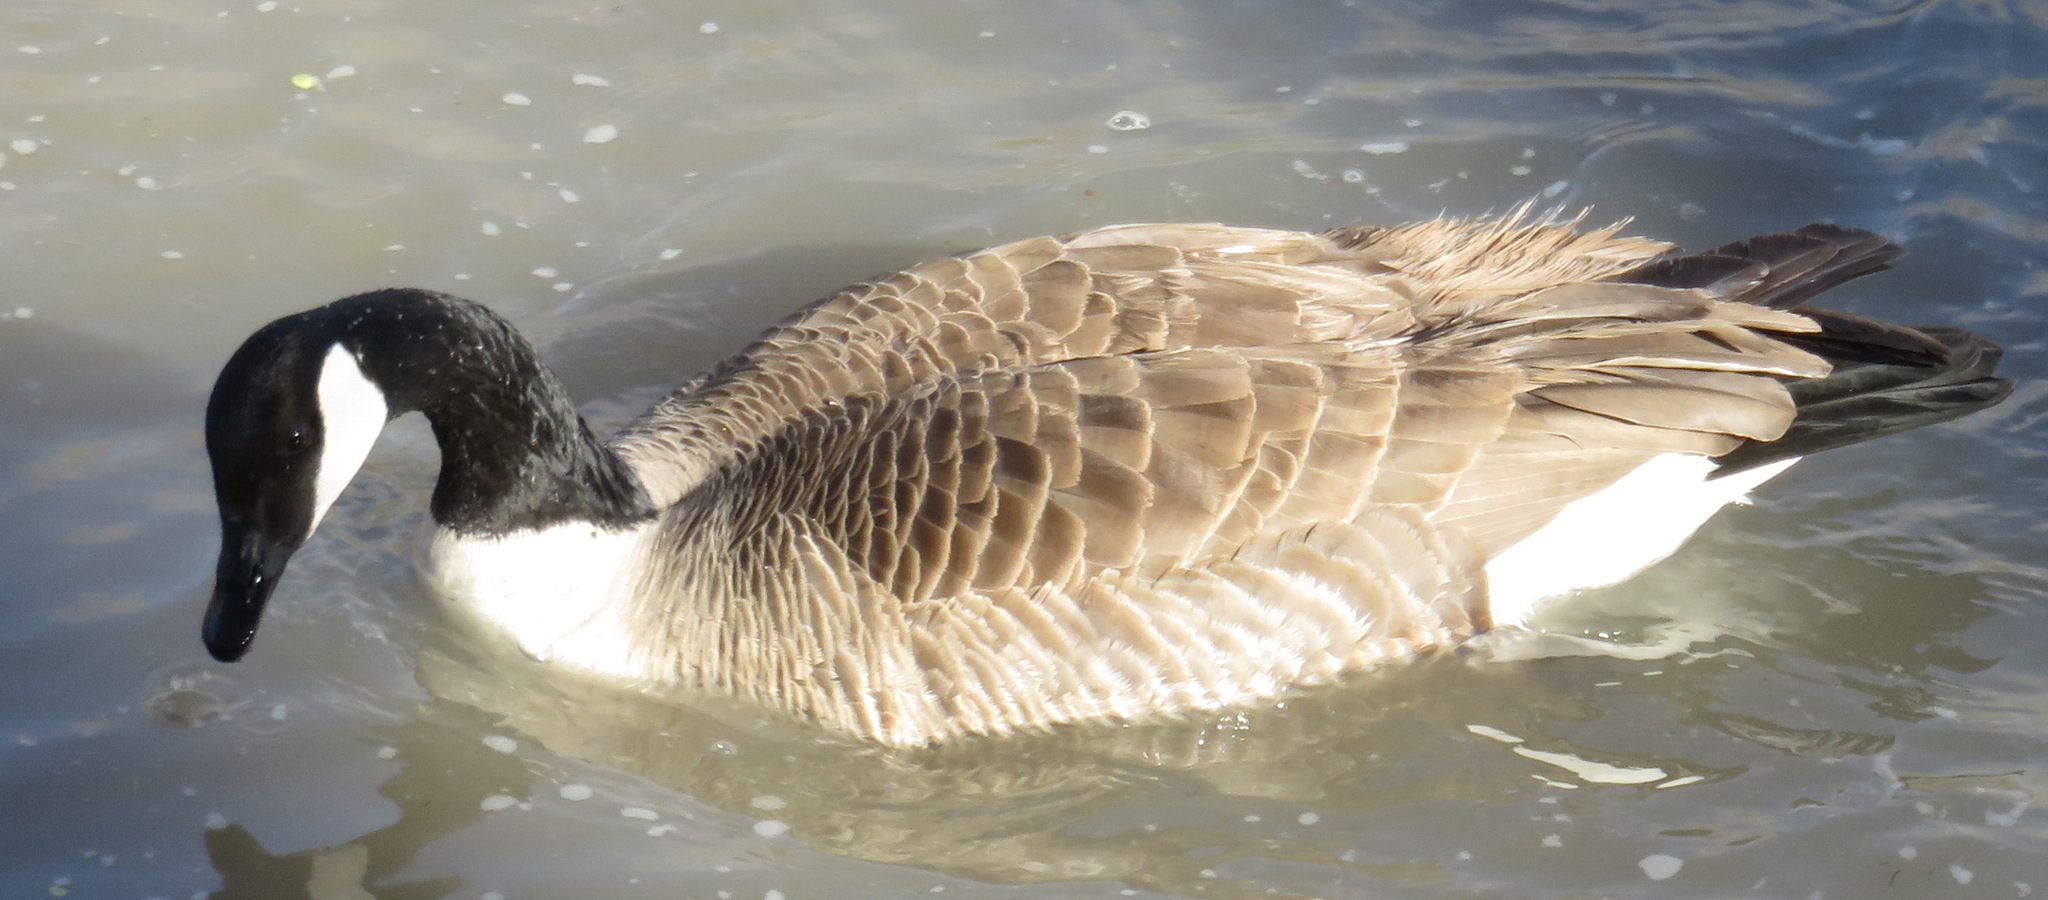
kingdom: Animalia
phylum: Chordata
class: Aves
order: Anseriformes
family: Anatidae
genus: Branta
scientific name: Branta canadensis
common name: Canada goose
